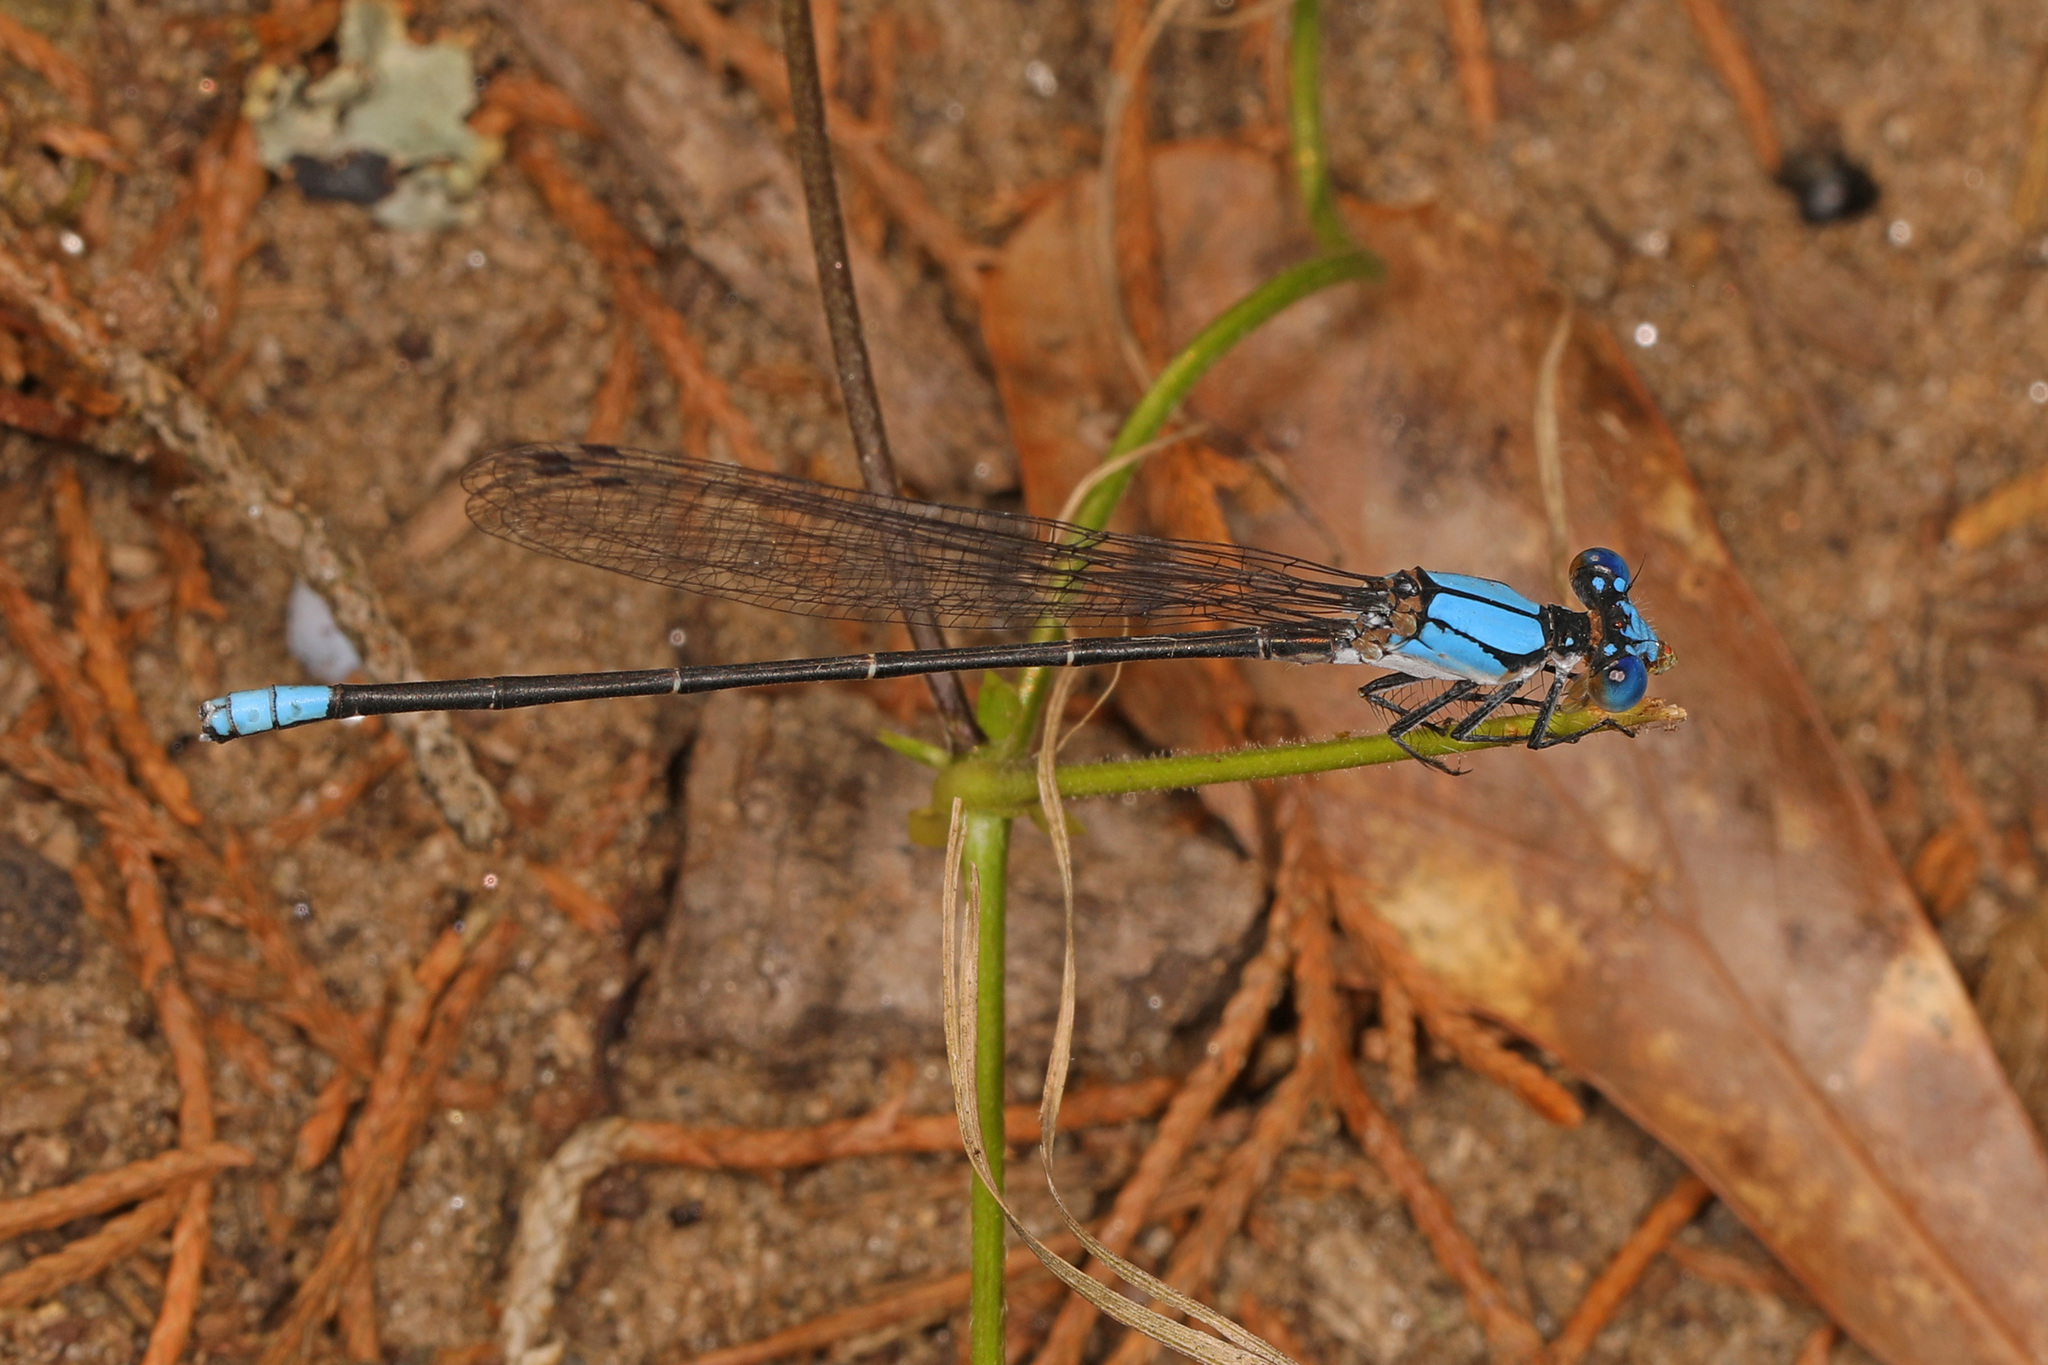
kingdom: Animalia
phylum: Arthropoda
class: Insecta
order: Odonata
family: Coenagrionidae
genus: Argia
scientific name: Argia apicalis
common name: Blue-fronted dancer
